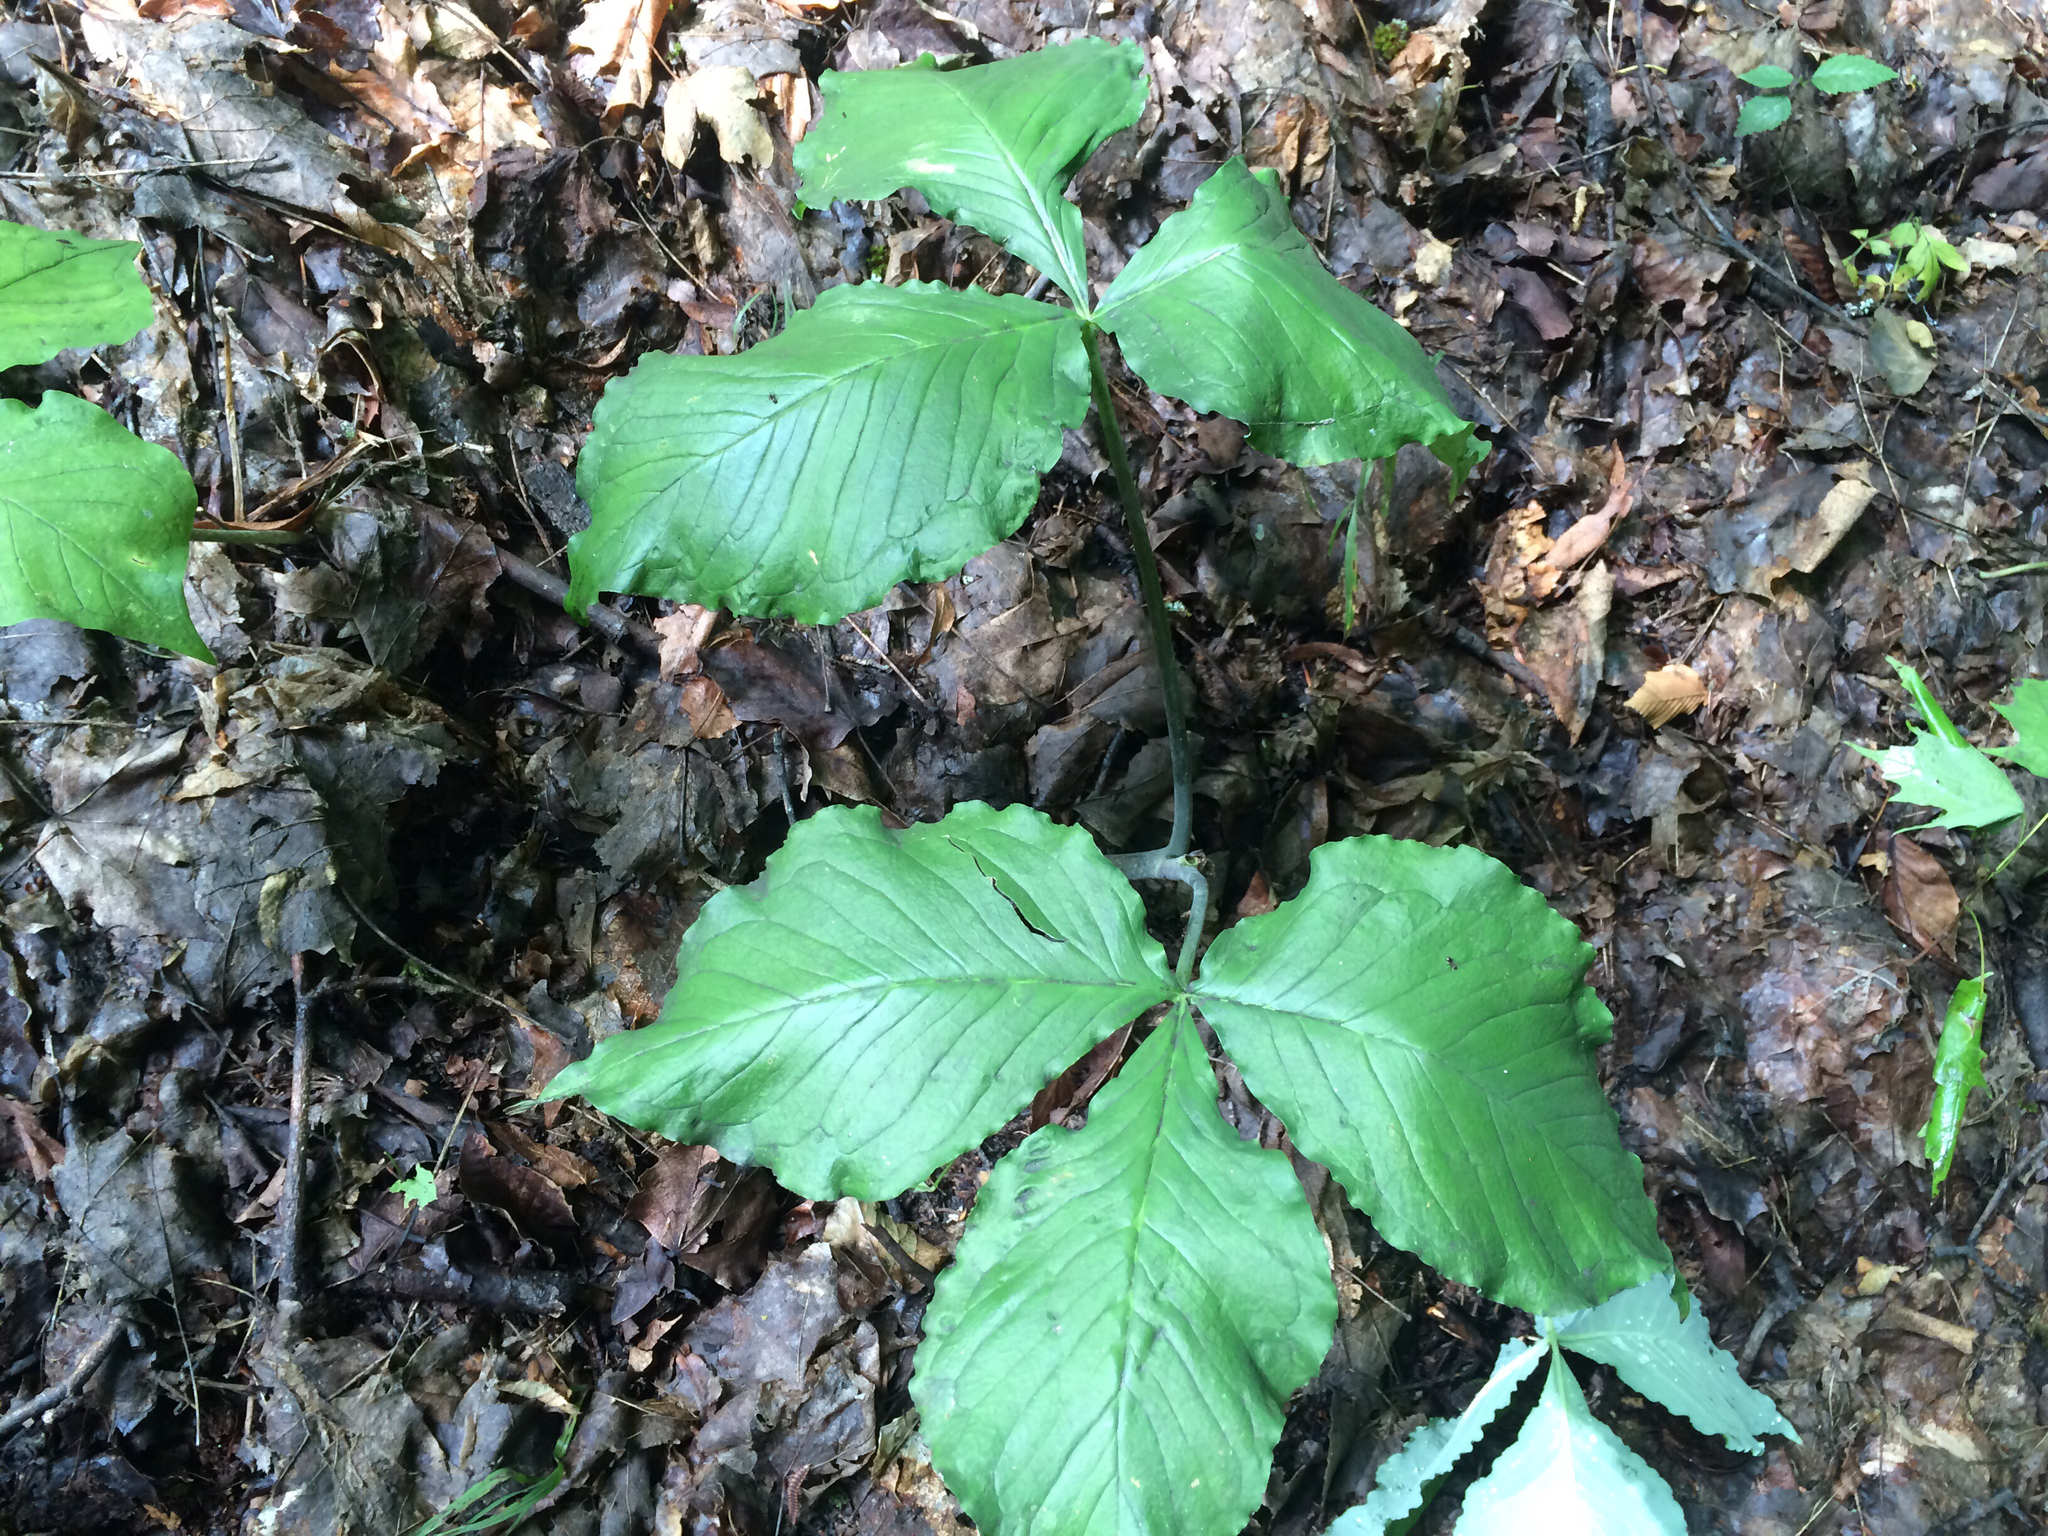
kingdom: Plantae
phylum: Tracheophyta
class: Liliopsida
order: Alismatales
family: Araceae
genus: Arisaema
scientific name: Arisaema triphyllum
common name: Jack-in-the-pulpit
